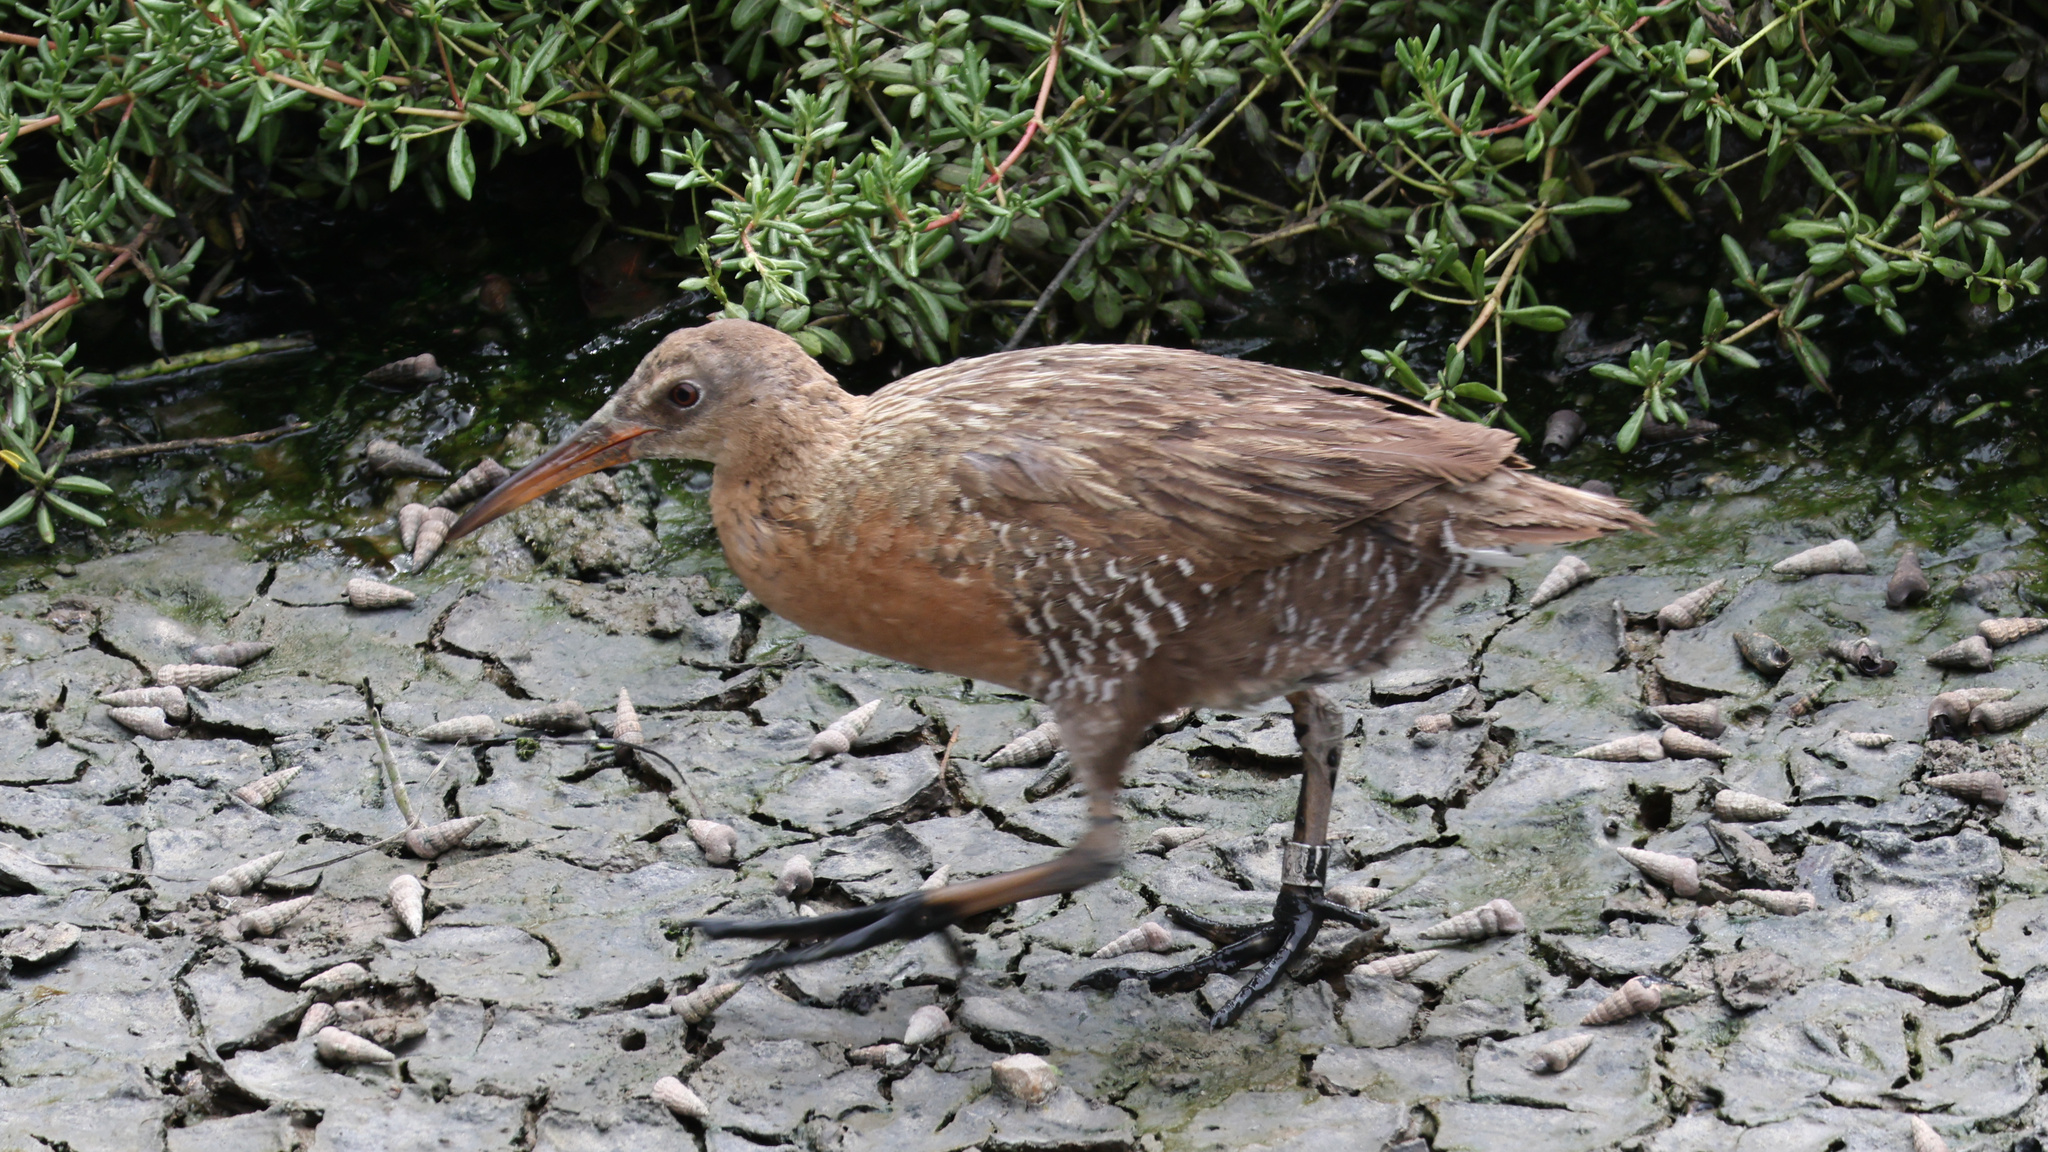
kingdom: Animalia
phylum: Chordata
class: Aves
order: Gruiformes
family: Rallidae
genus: Rallus
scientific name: Rallus obsoletus
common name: Ridgway's rail
